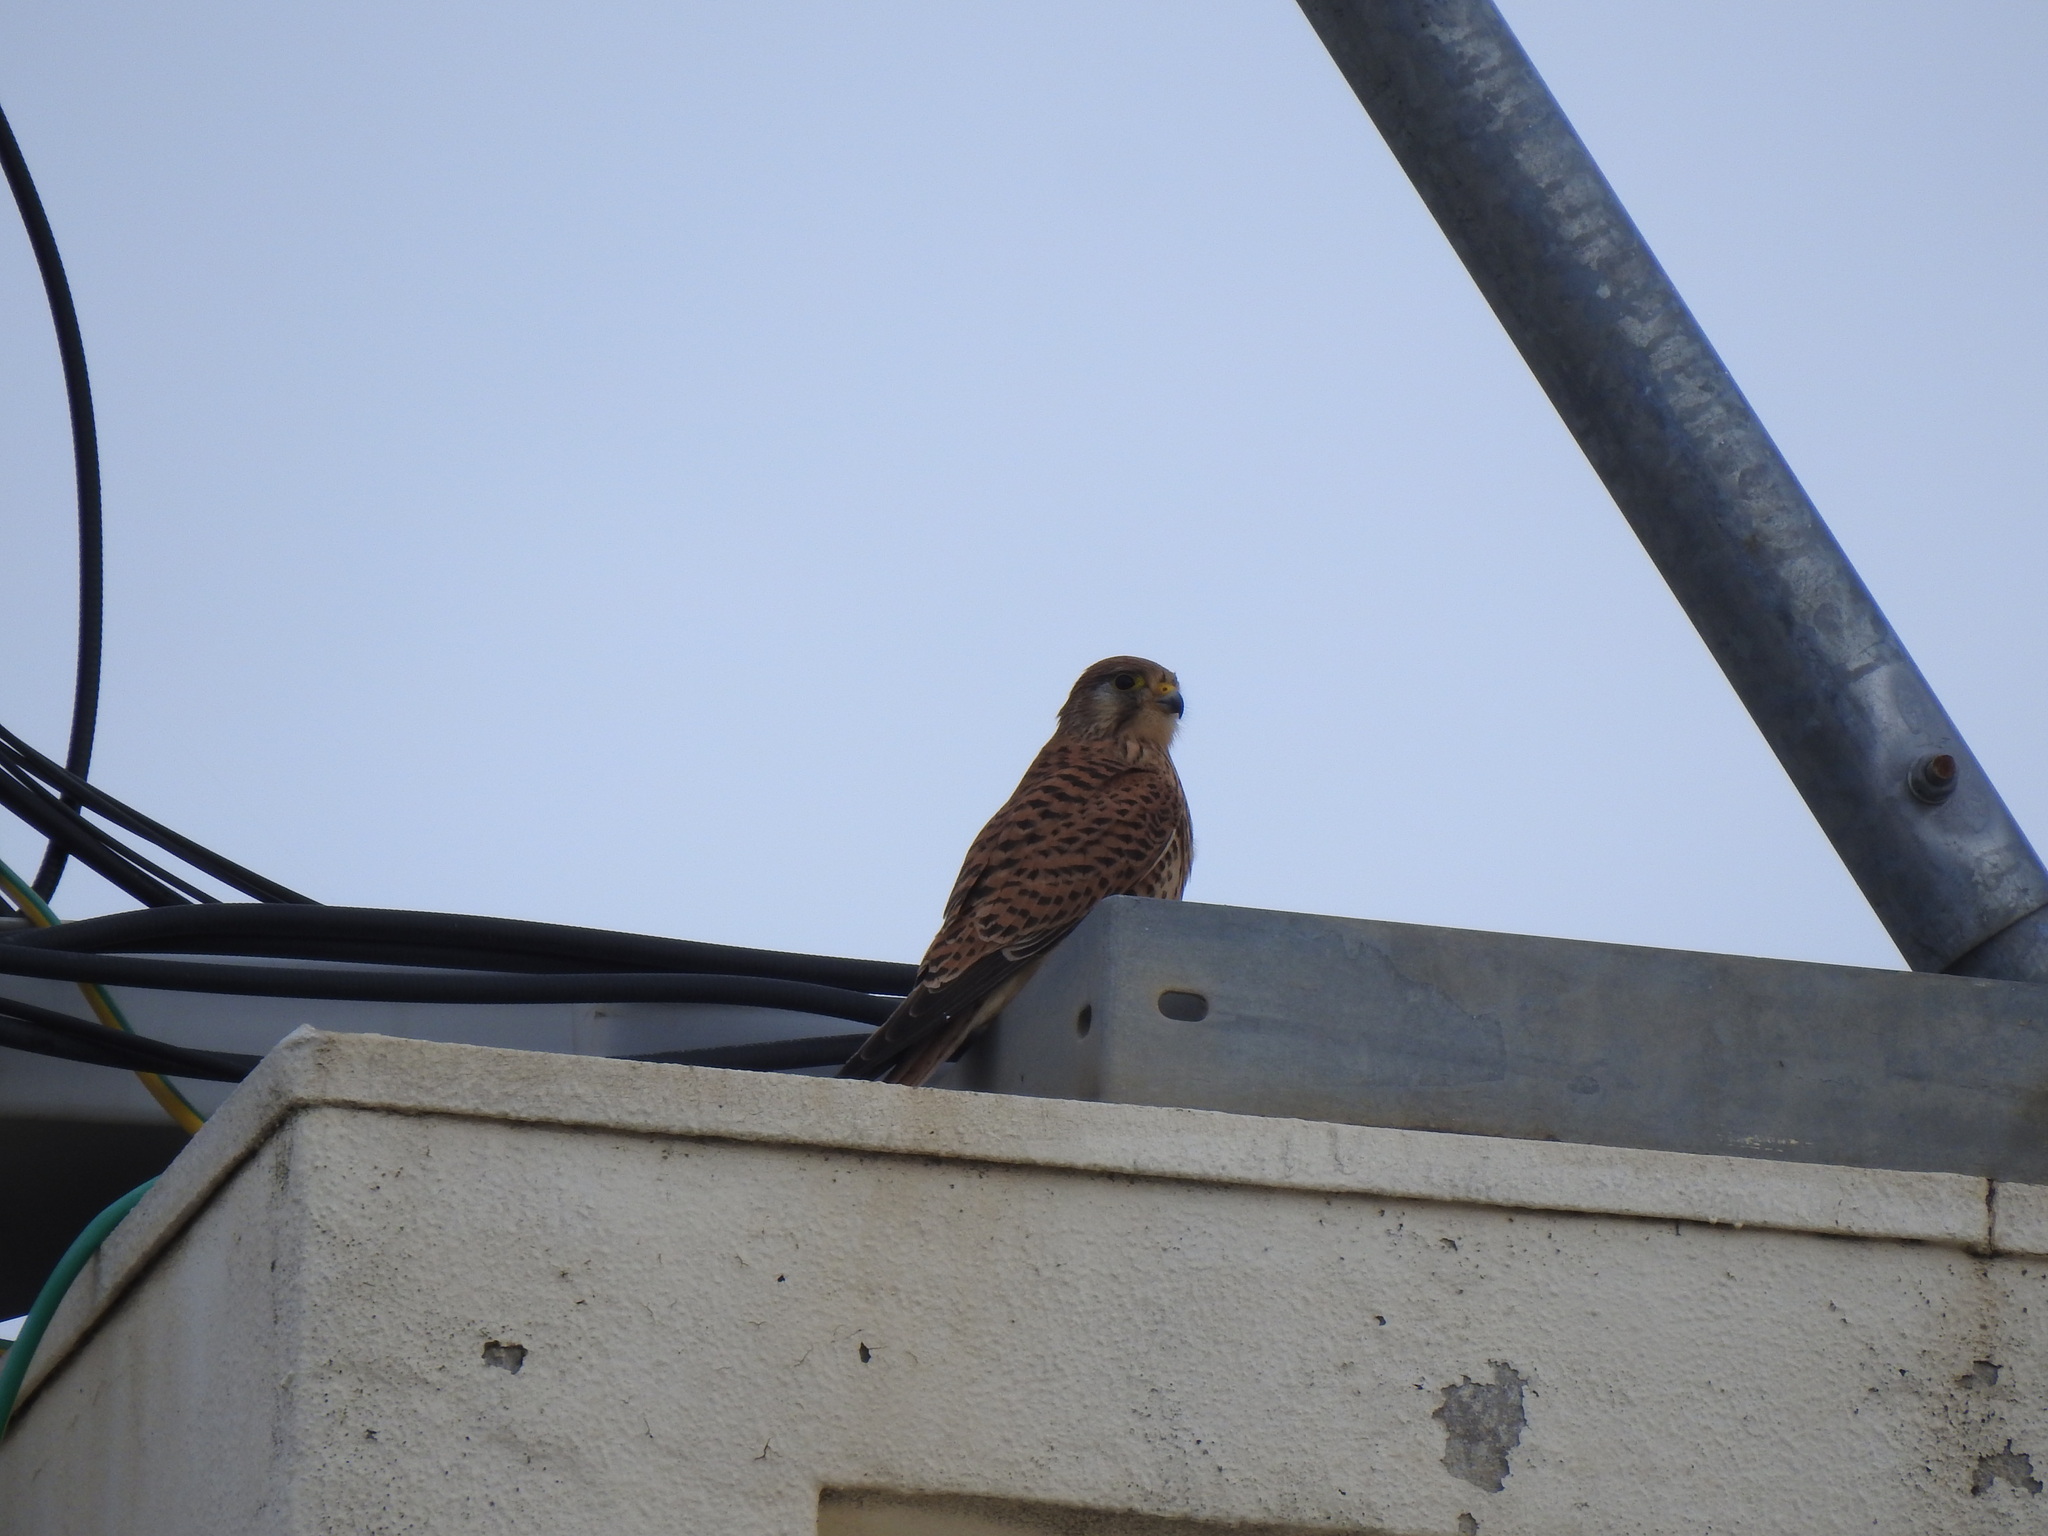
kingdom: Animalia
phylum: Chordata
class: Aves
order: Falconiformes
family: Falconidae
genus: Falco
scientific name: Falco tinnunculus
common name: Common kestrel
